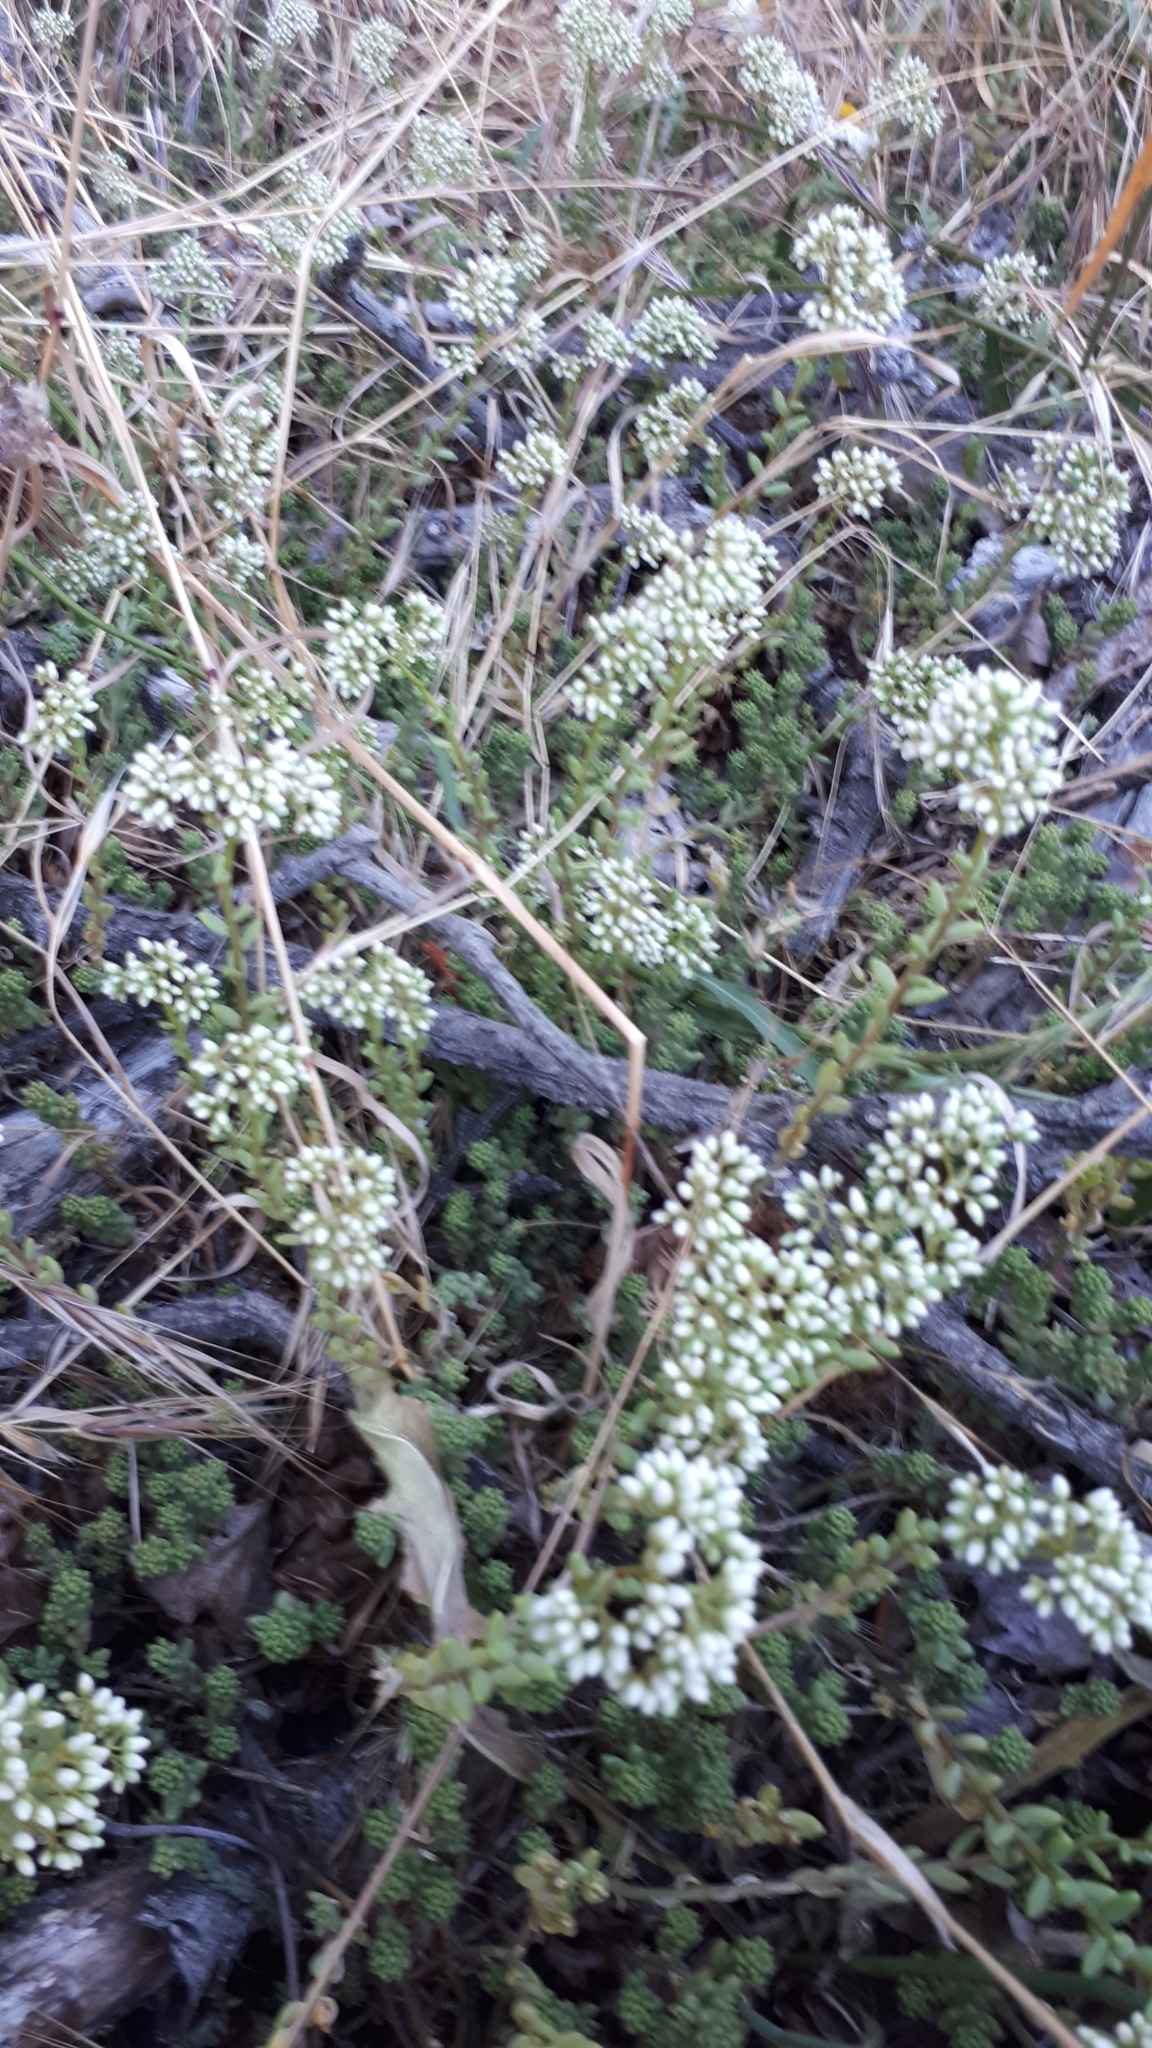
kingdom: Plantae
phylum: Tracheophyta
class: Magnoliopsida
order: Saxifragales
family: Crassulaceae
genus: Sedum
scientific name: Sedum album
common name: White stonecrop
